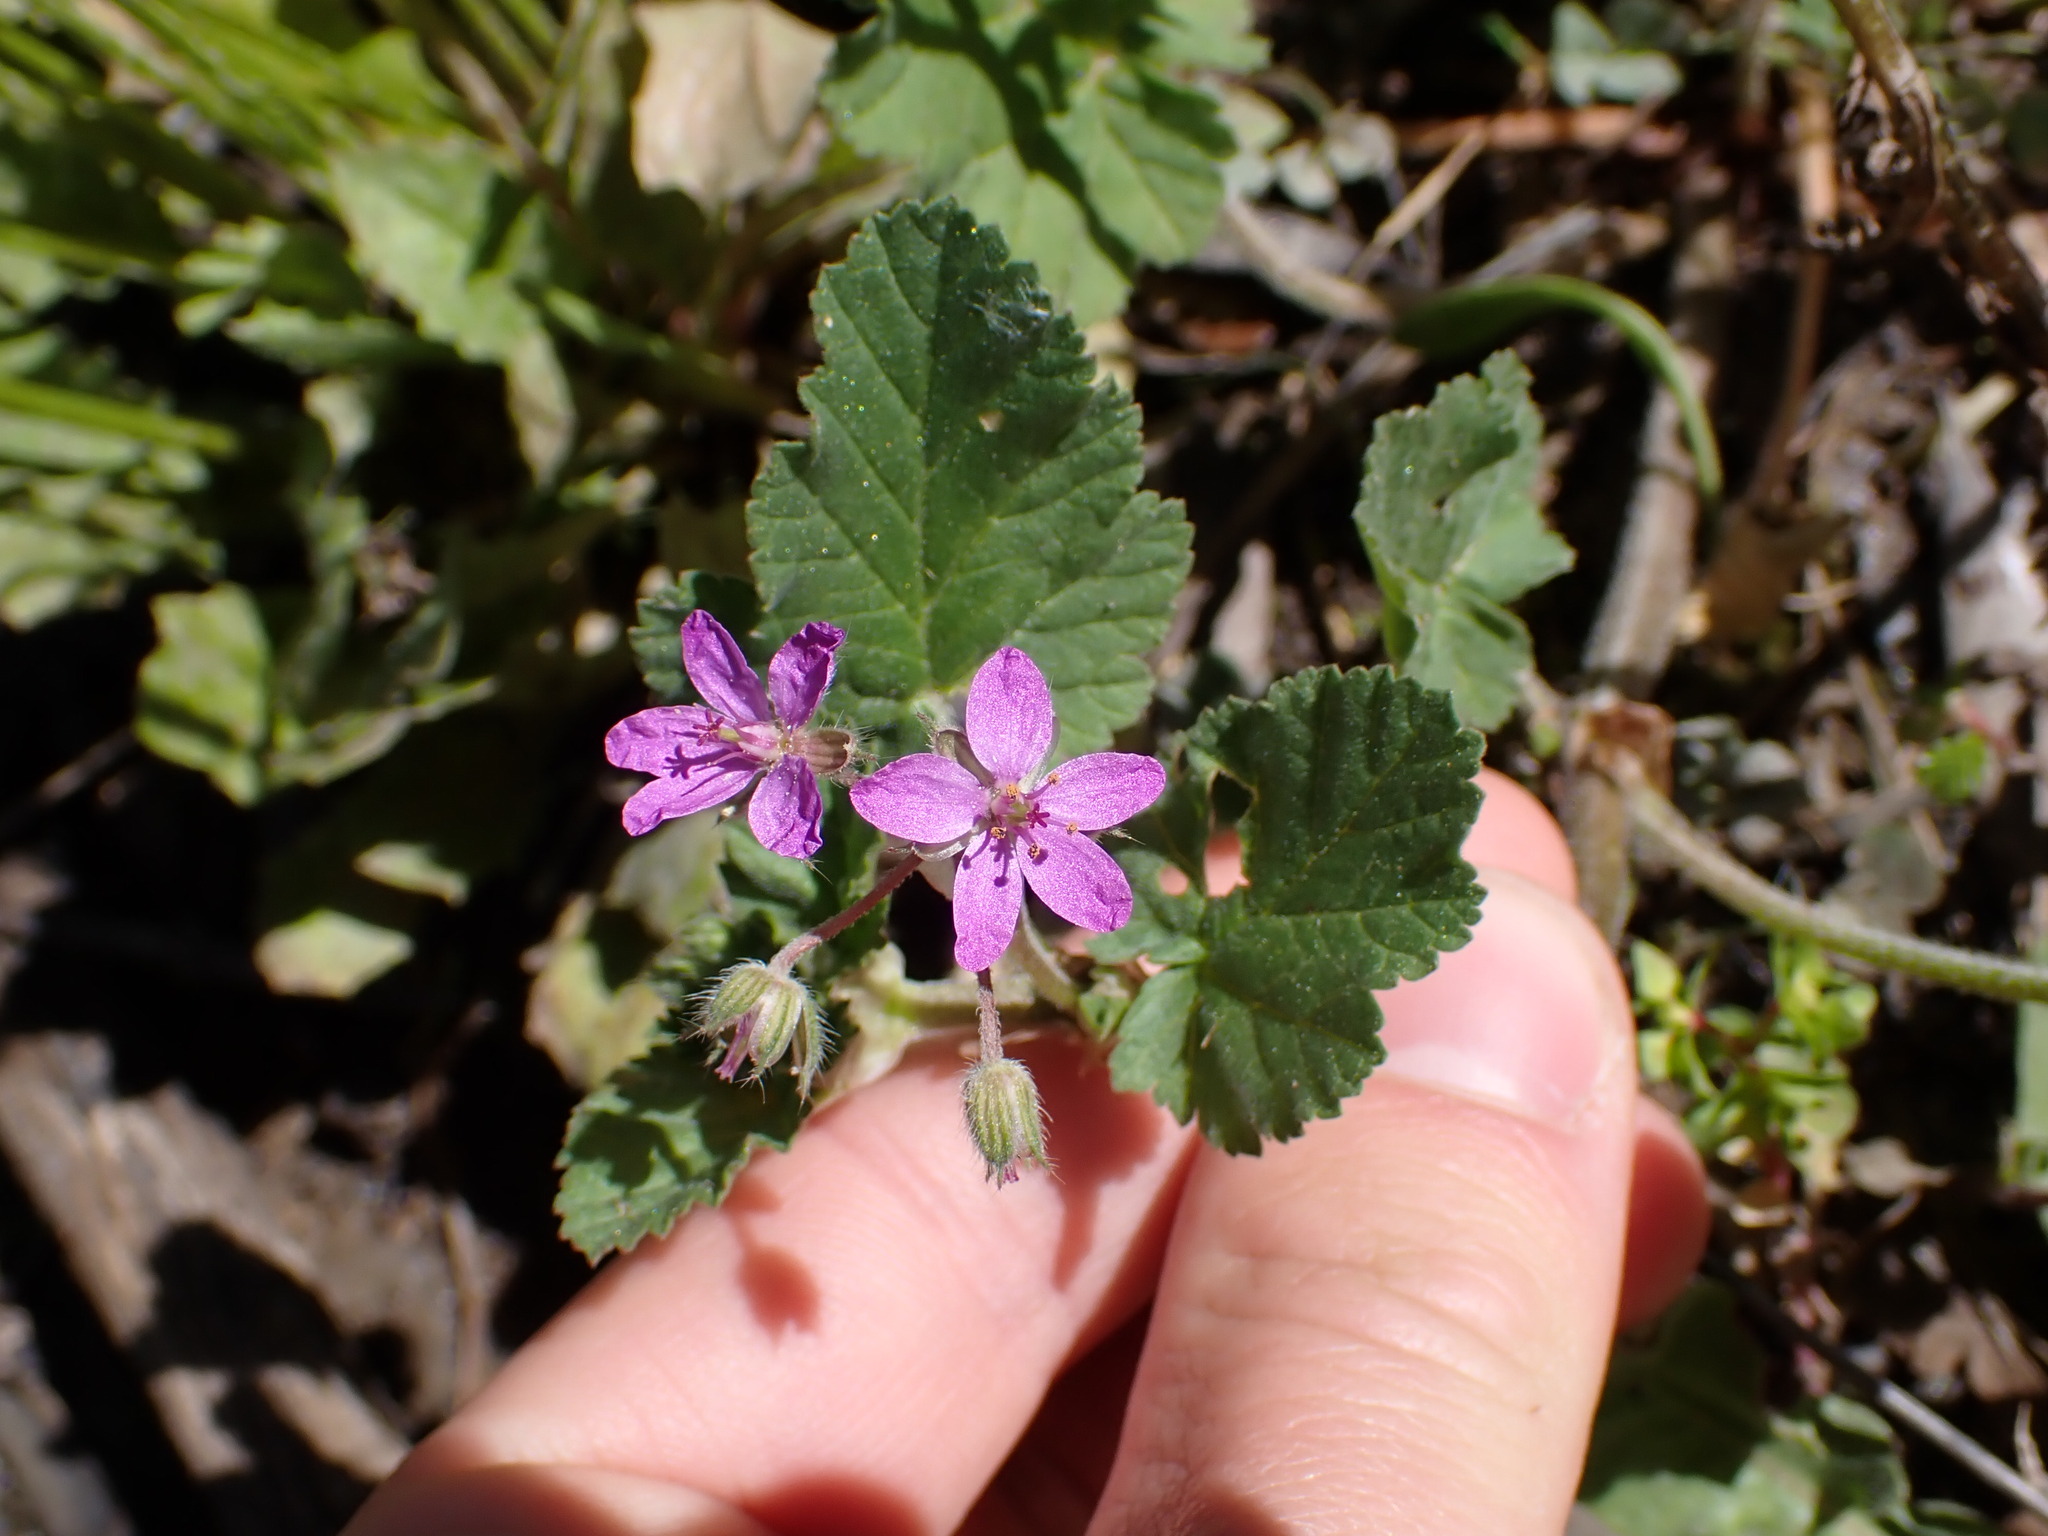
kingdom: Plantae
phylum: Tracheophyta
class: Magnoliopsida
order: Geraniales
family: Geraniaceae
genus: Erodium
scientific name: Erodium malacoides
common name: Soft stork's-bill
